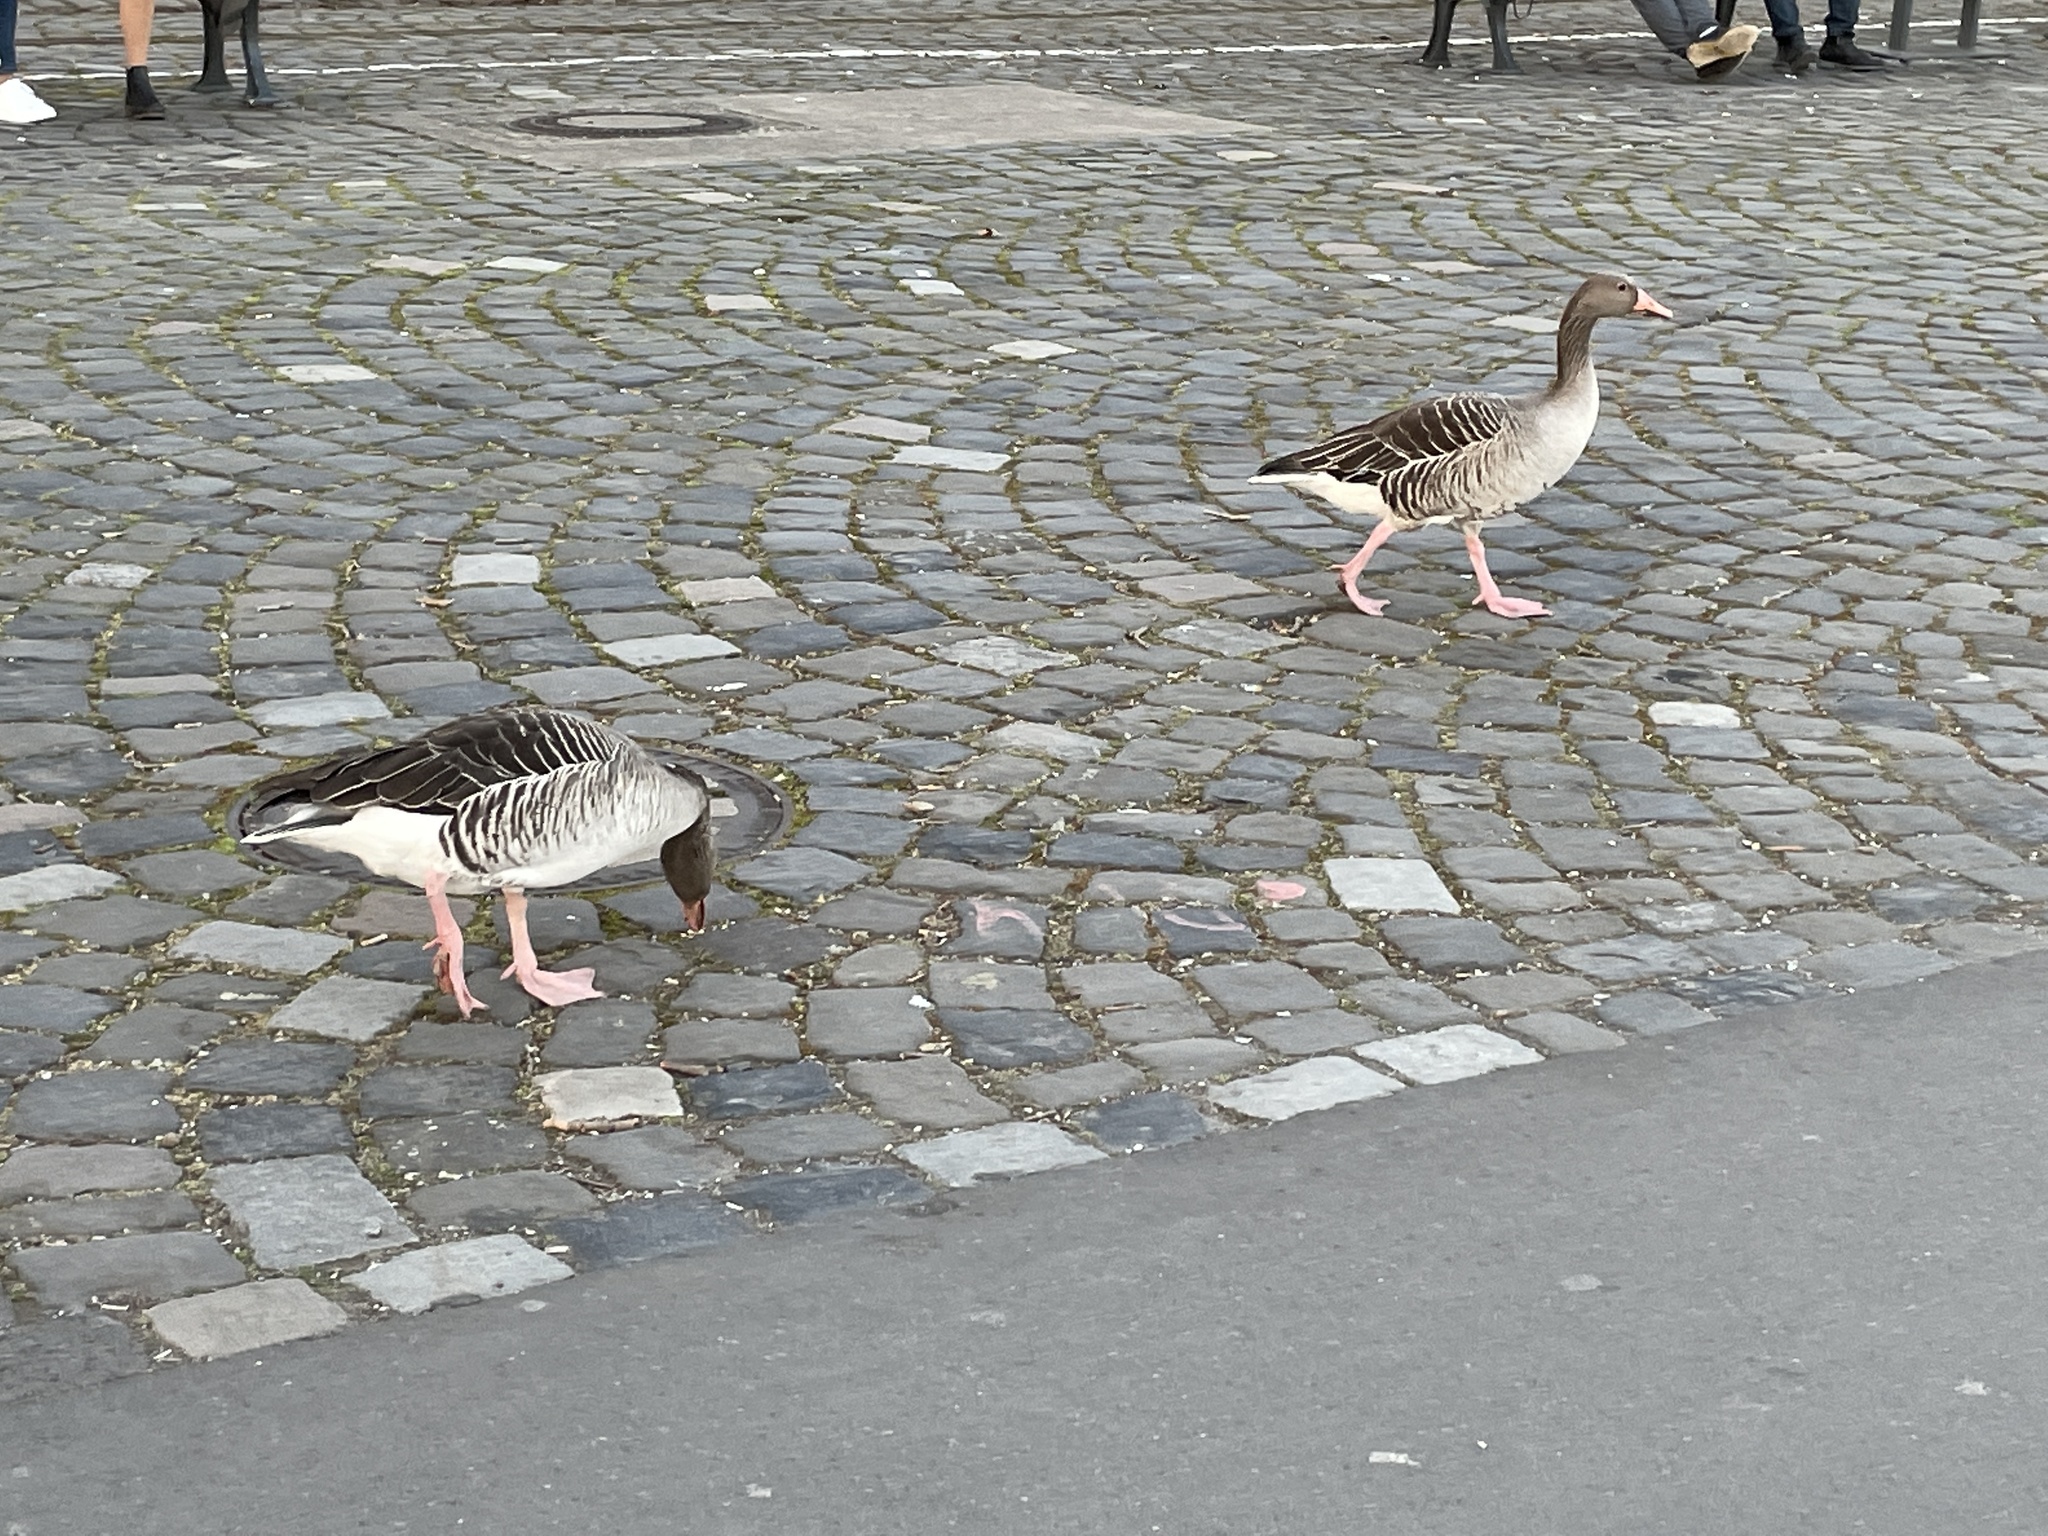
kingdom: Animalia
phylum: Chordata
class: Aves
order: Anseriformes
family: Anatidae
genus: Anser
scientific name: Anser anser
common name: Greylag goose
